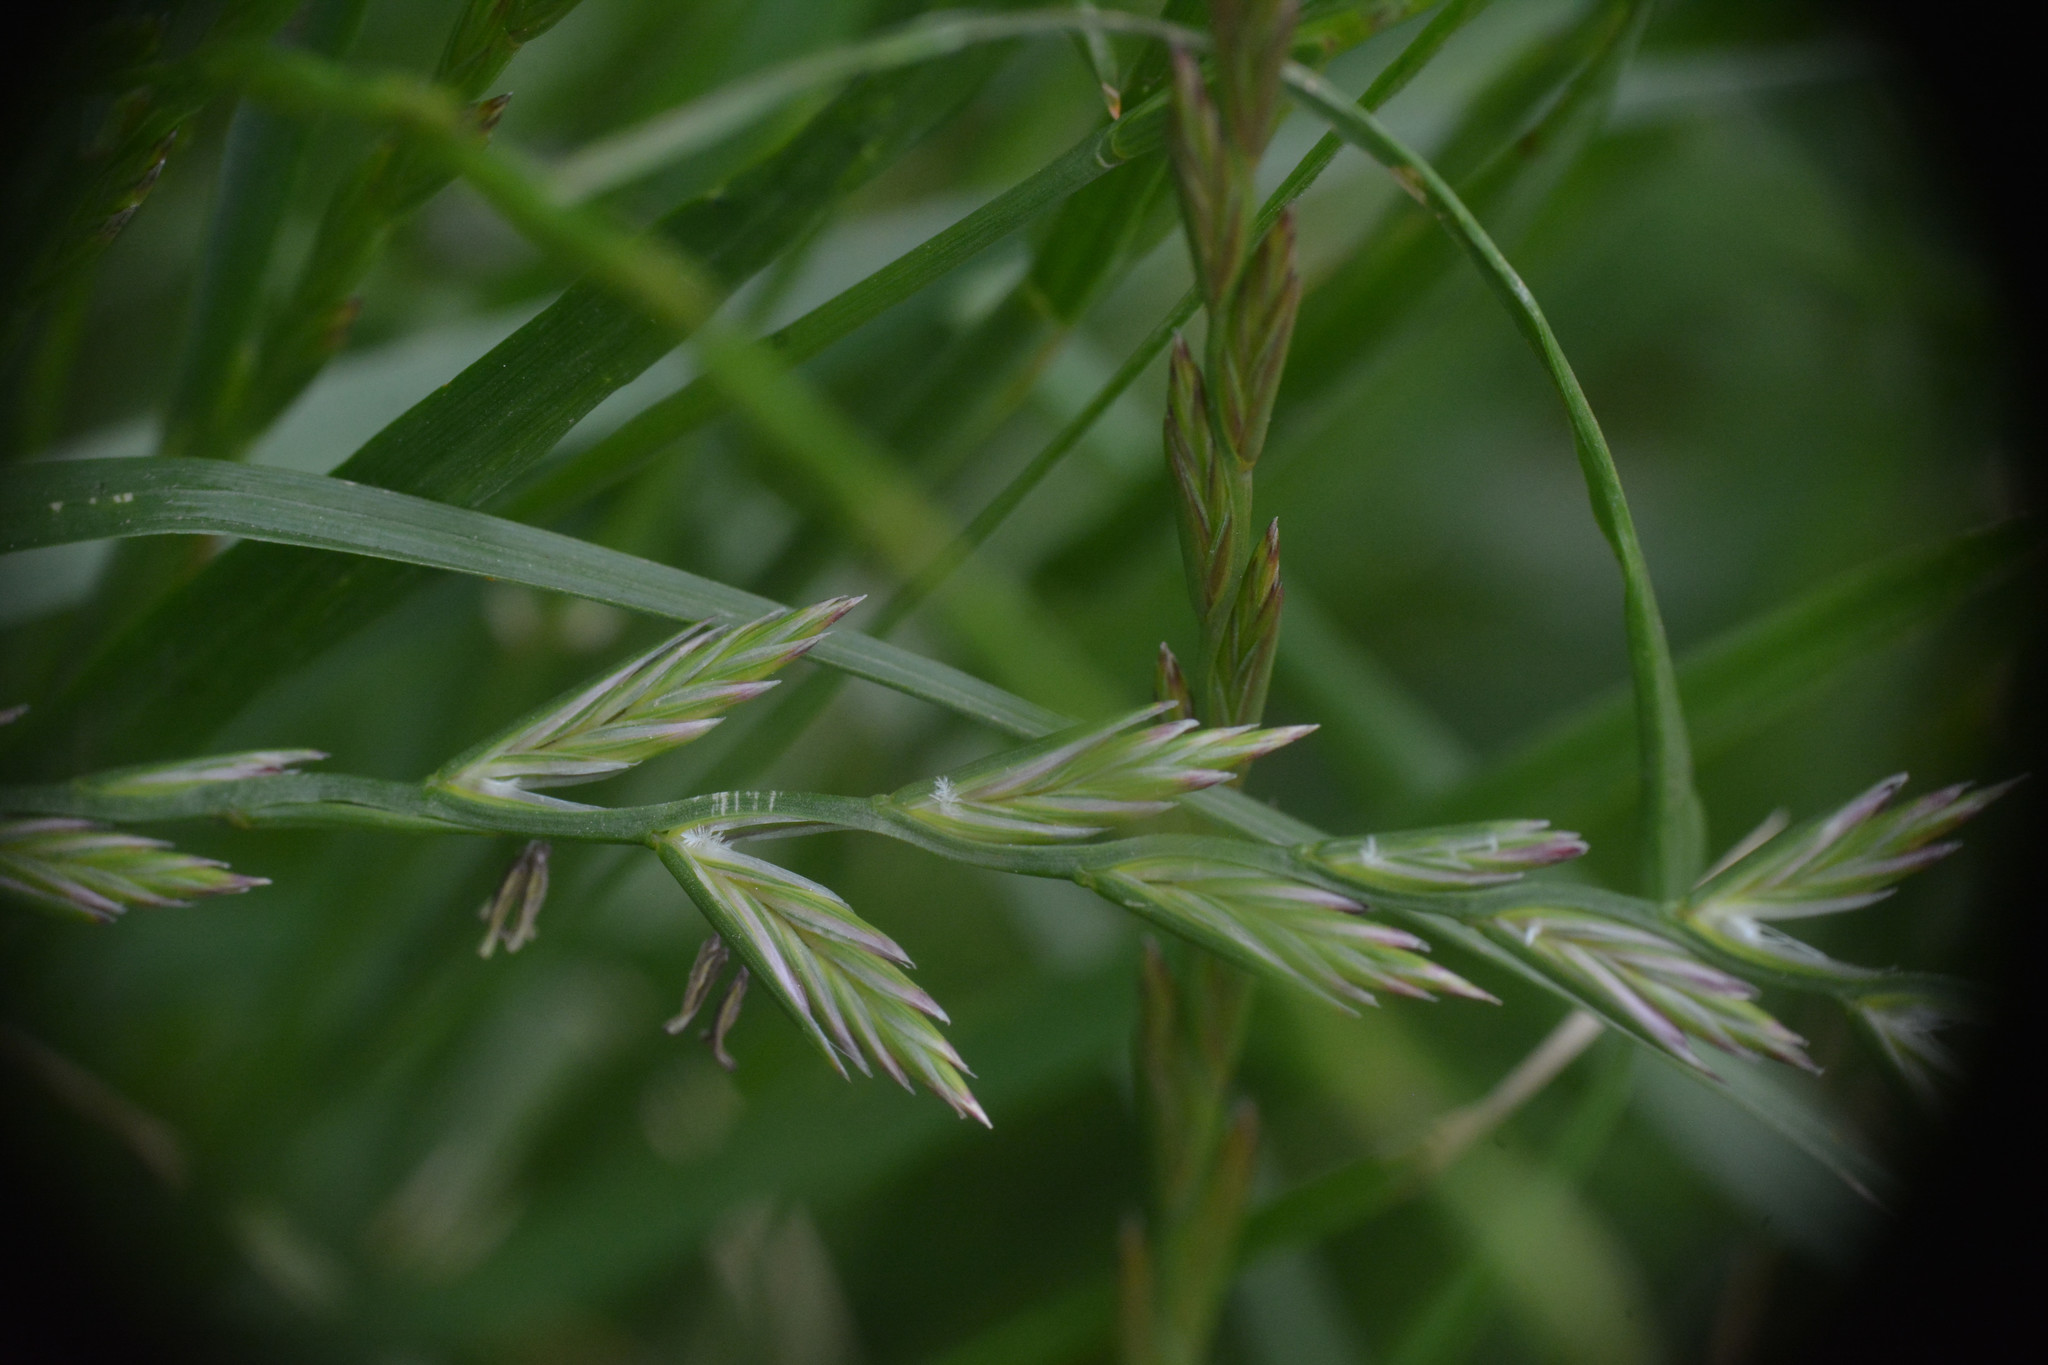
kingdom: Plantae
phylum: Tracheophyta
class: Liliopsida
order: Poales
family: Poaceae
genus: Lolium
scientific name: Lolium perenne
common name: Perennial ryegrass
